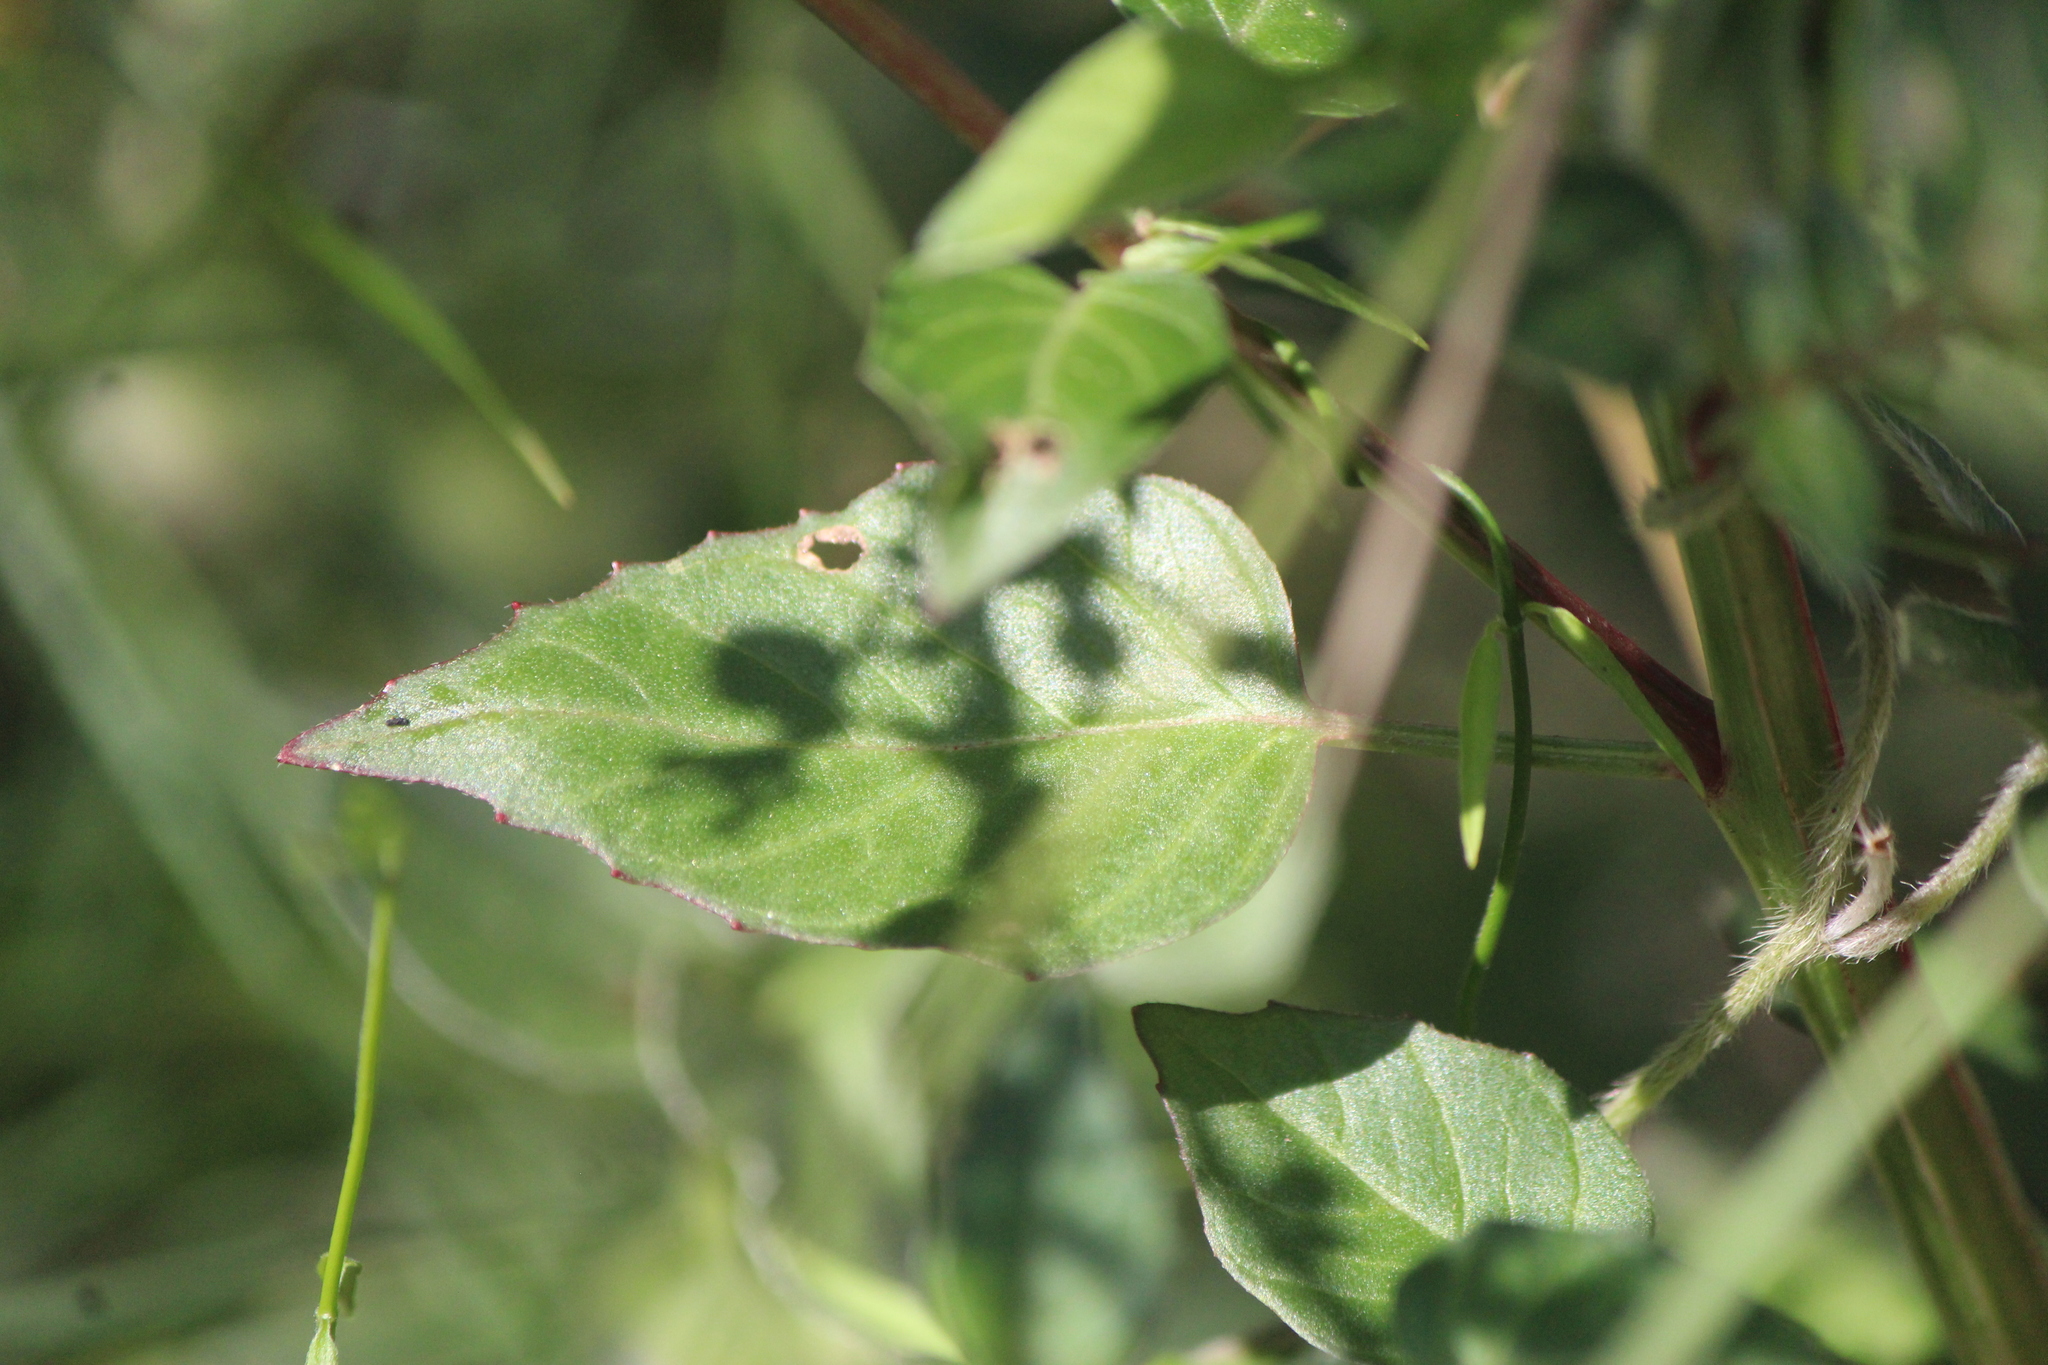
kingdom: Plantae
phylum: Tracheophyta
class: Magnoliopsida
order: Myrtales
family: Onagraceae
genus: Lopezia
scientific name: Lopezia racemosa
